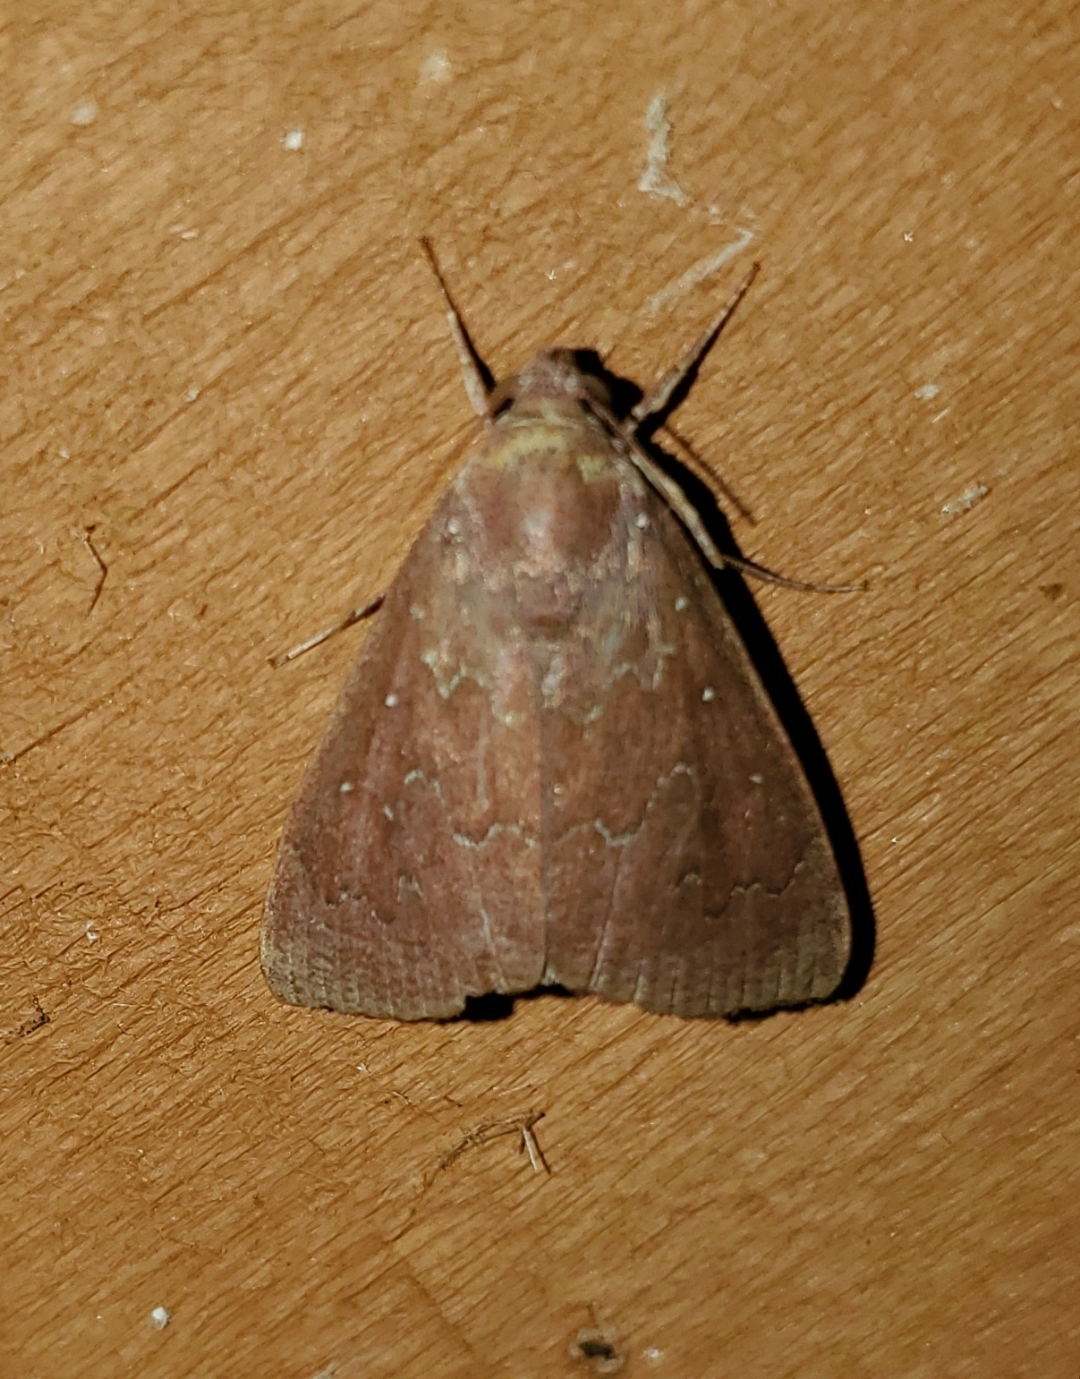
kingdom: Animalia
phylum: Arthropoda
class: Insecta
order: Lepidoptera
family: Erebidae
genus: Anomis
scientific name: Anomis illita
